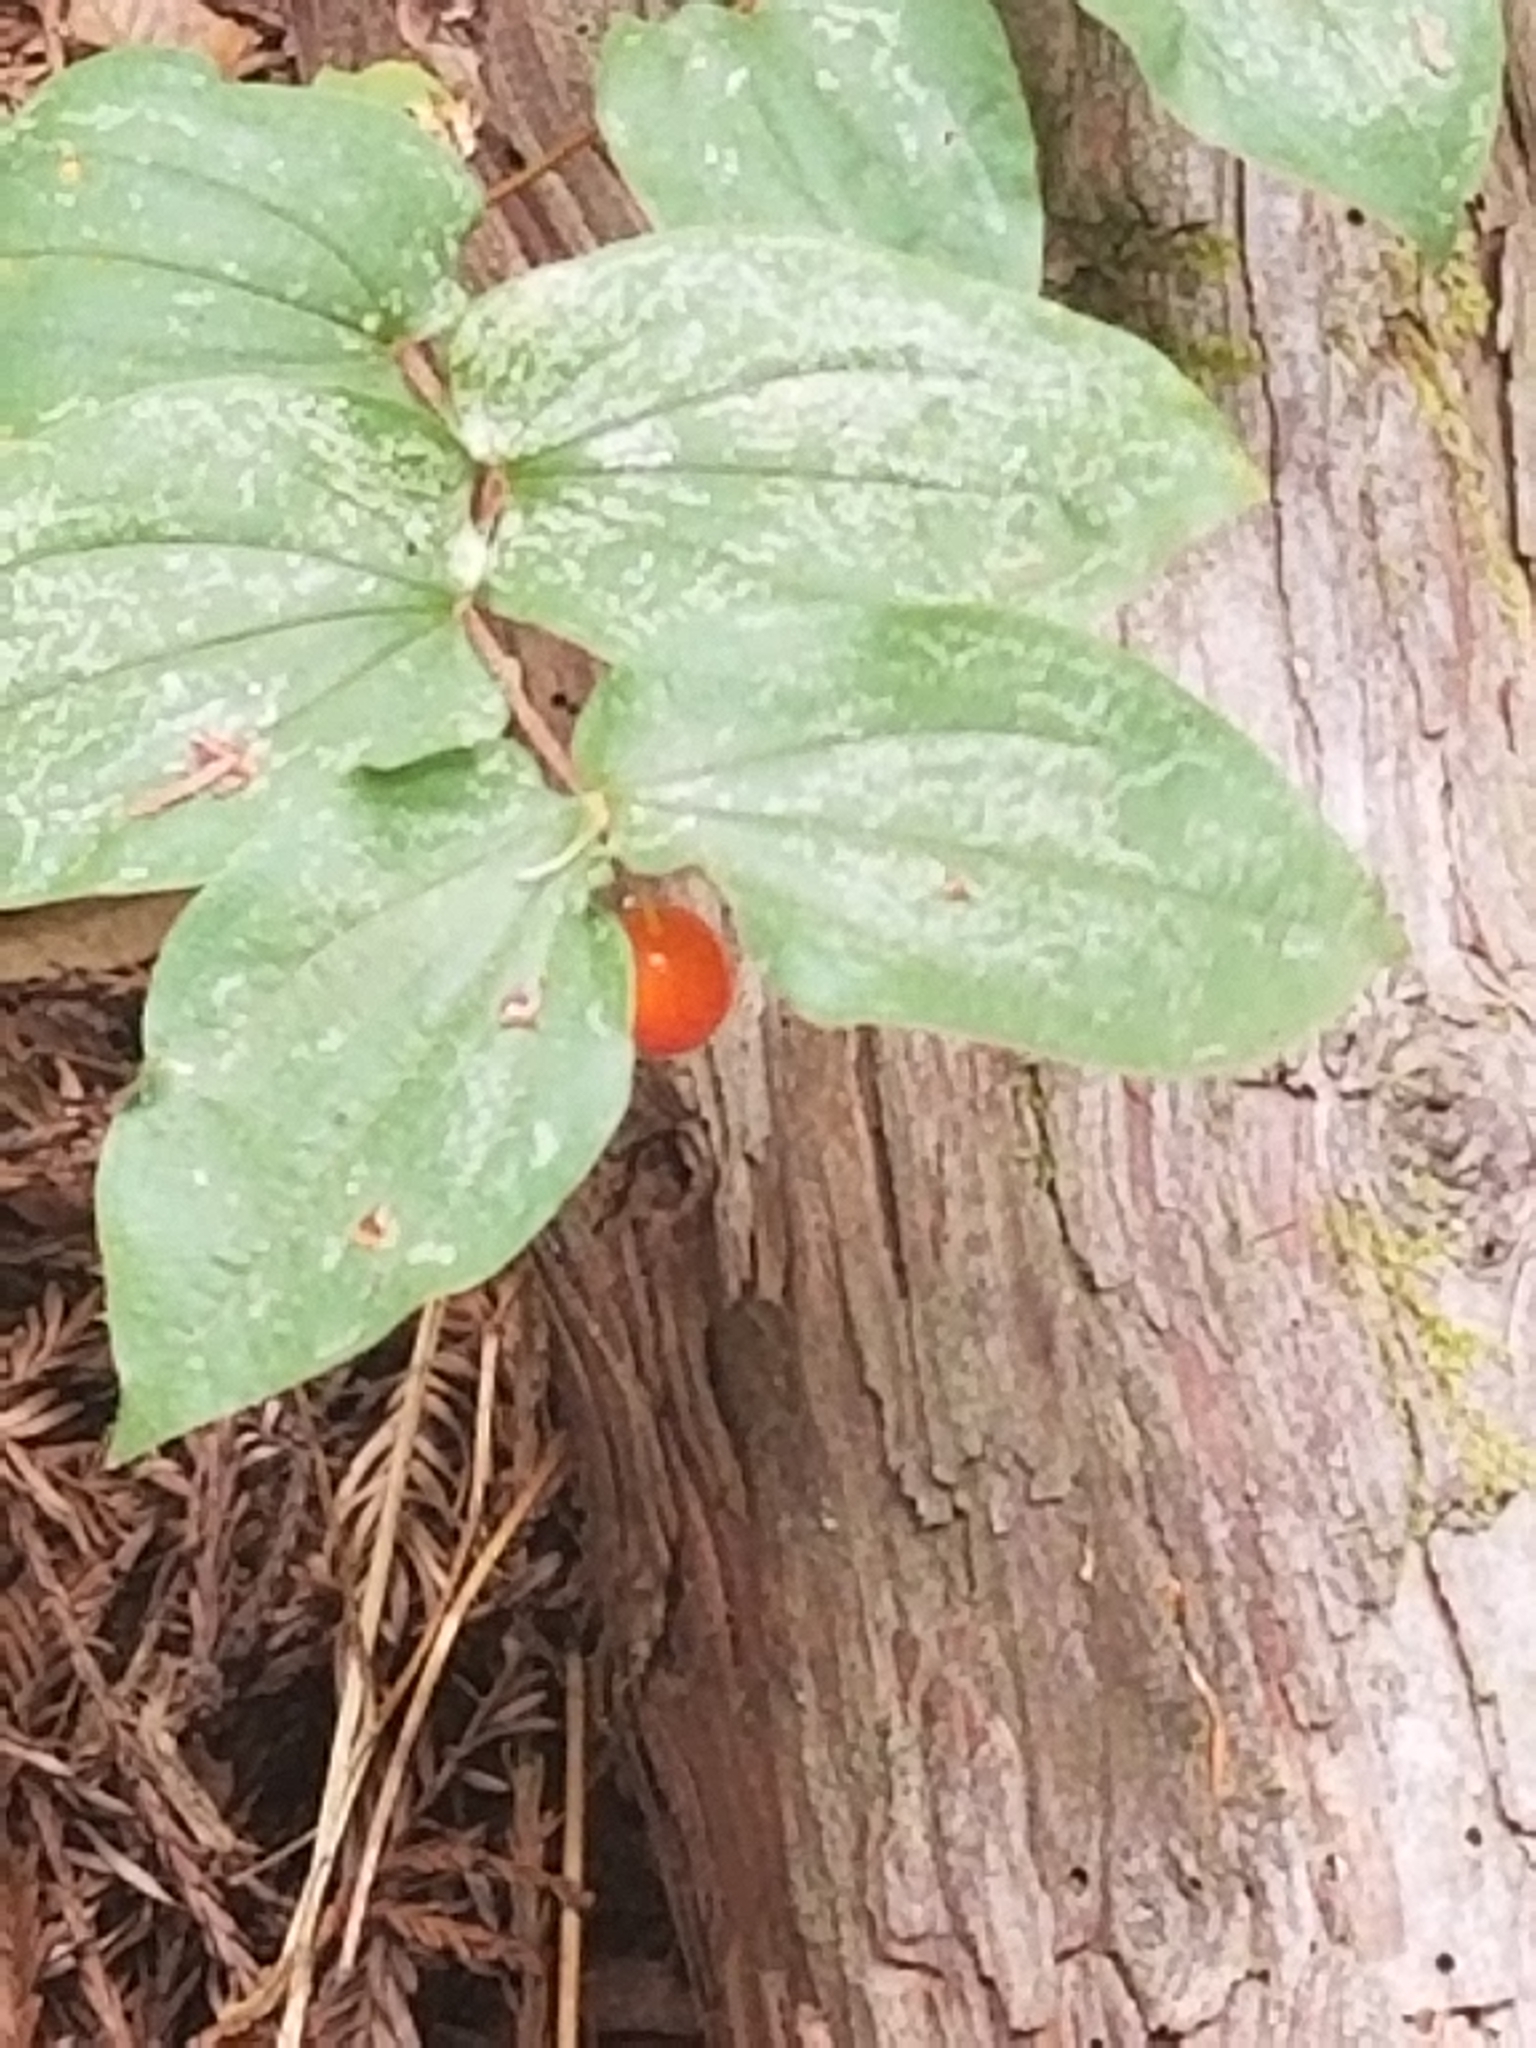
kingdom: Plantae
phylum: Tracheophyta
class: Liliopsida
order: Liliales
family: Liliaceae
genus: Prosartes
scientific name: Prosartes hookeri
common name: Fairy-bells
